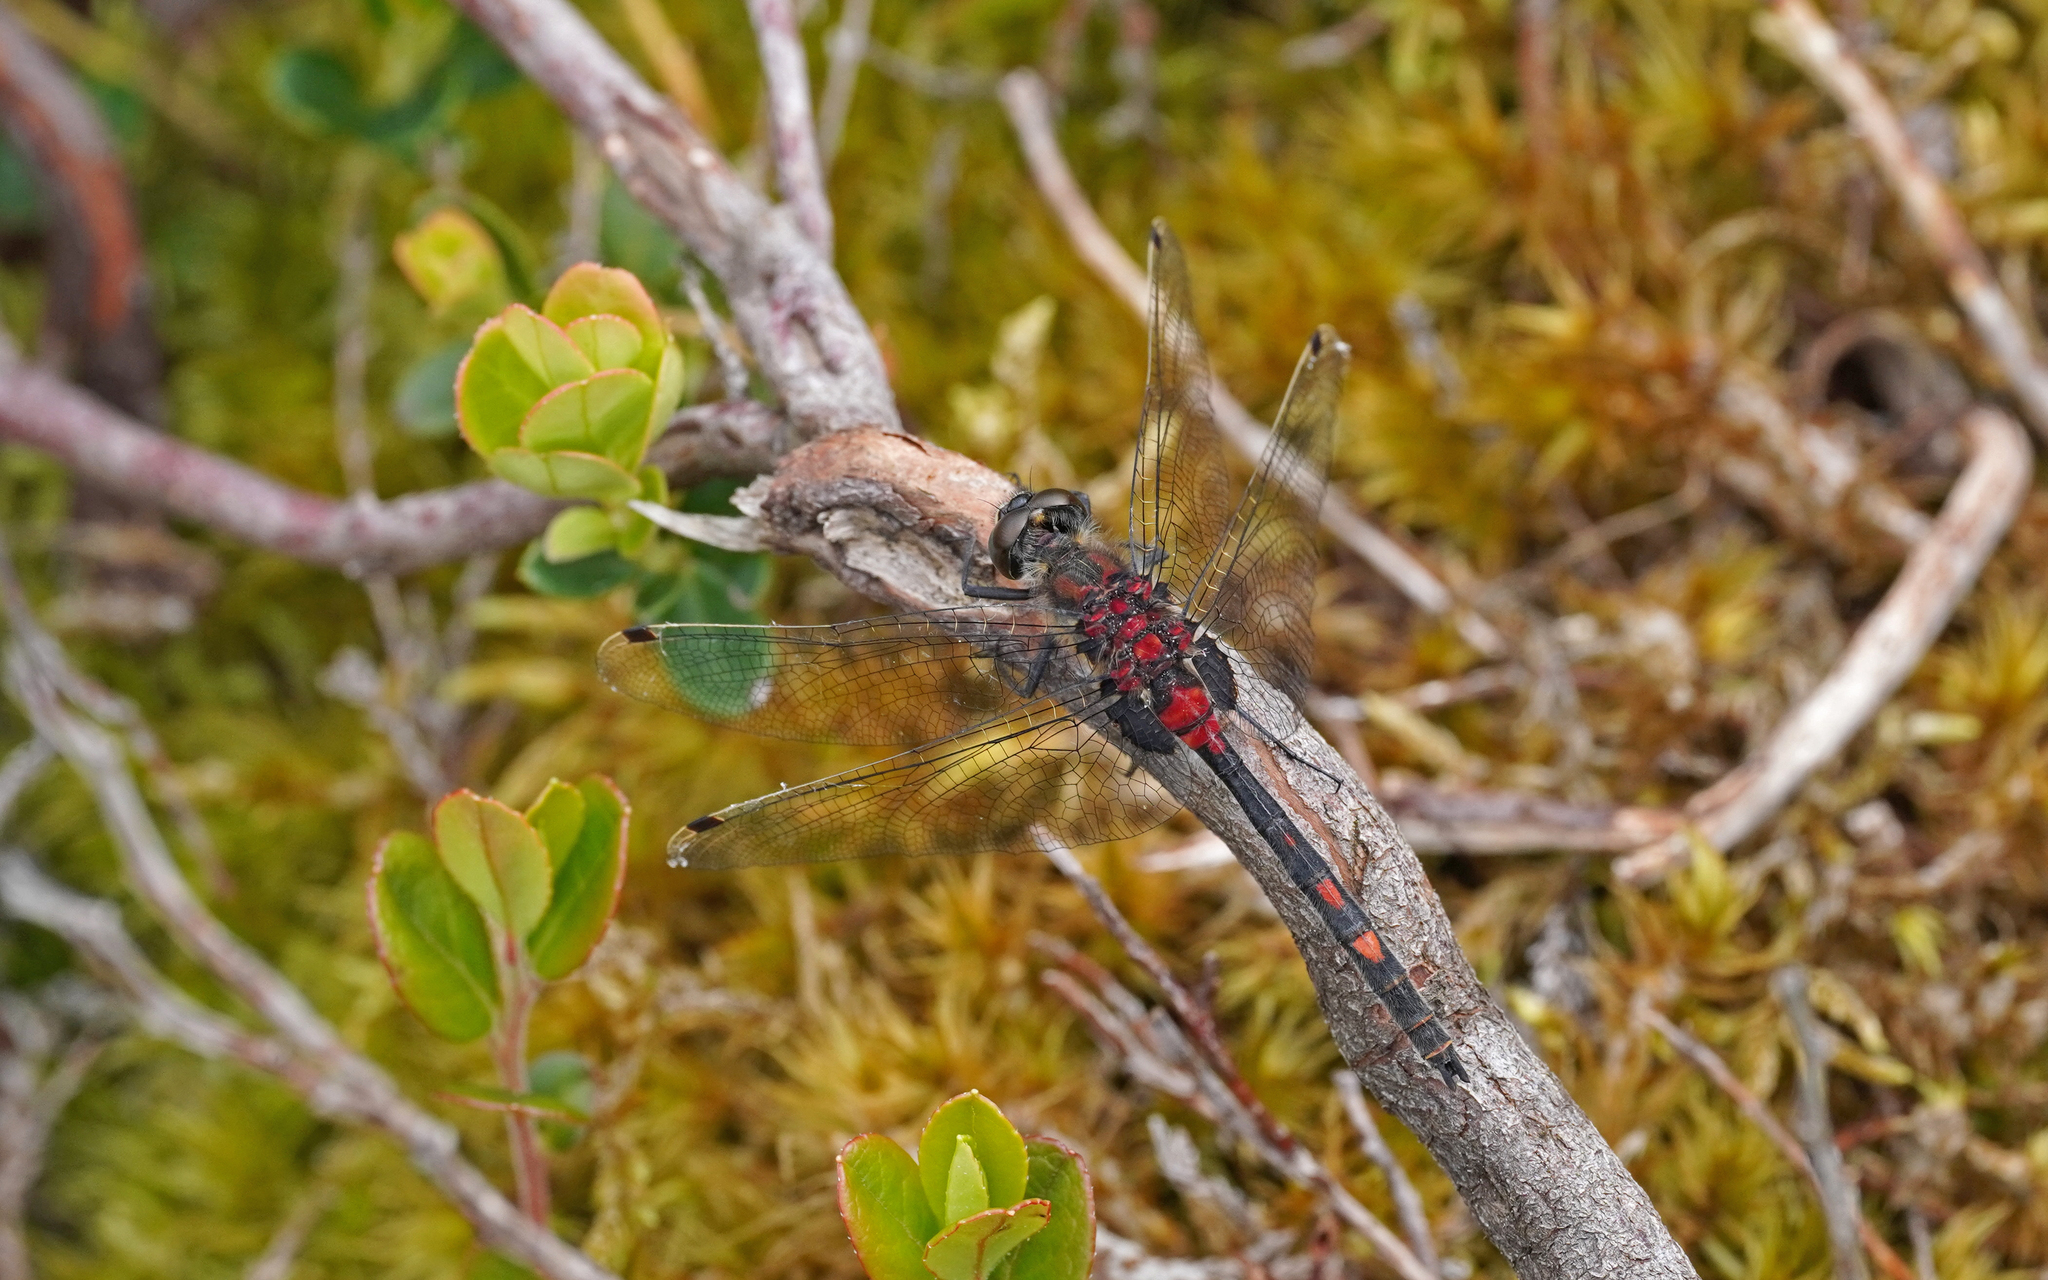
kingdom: Animalia
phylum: Arthropoda
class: Insecta
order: Odonata
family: Libellulidae
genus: Leucorrhinia
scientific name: Leucorrhinia dubia
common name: White-faced darter
